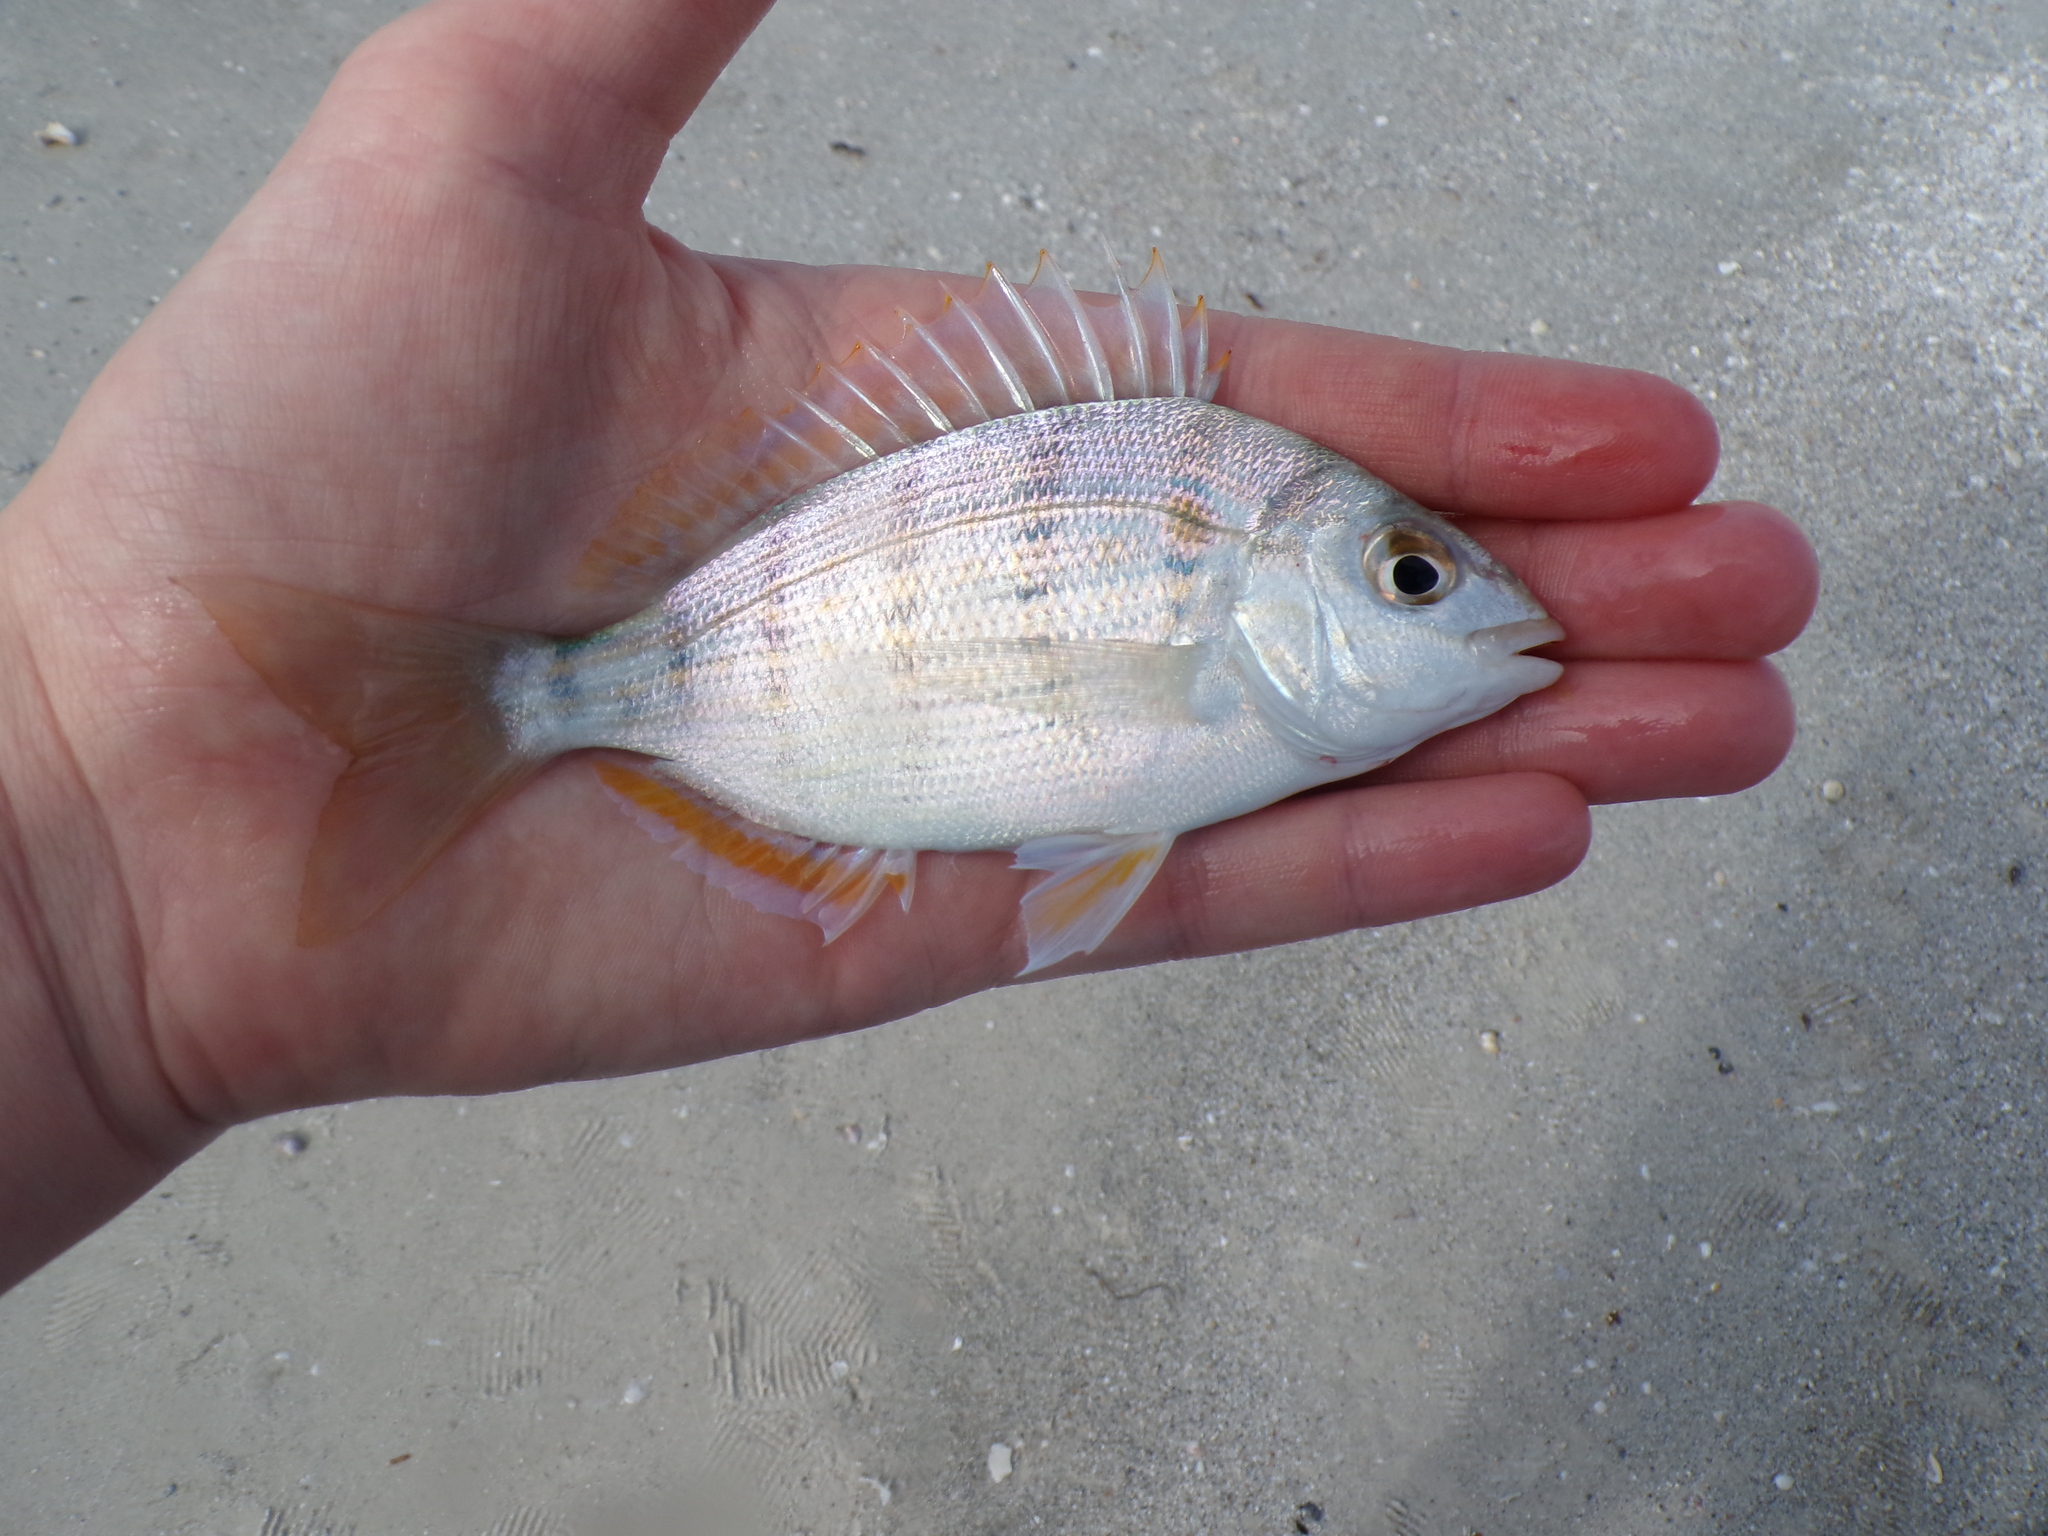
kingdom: Animalia
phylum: Chordata
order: Perciformes
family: Sparidae
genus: Lagodon
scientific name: Lagodon rhomboides
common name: Pinfish
